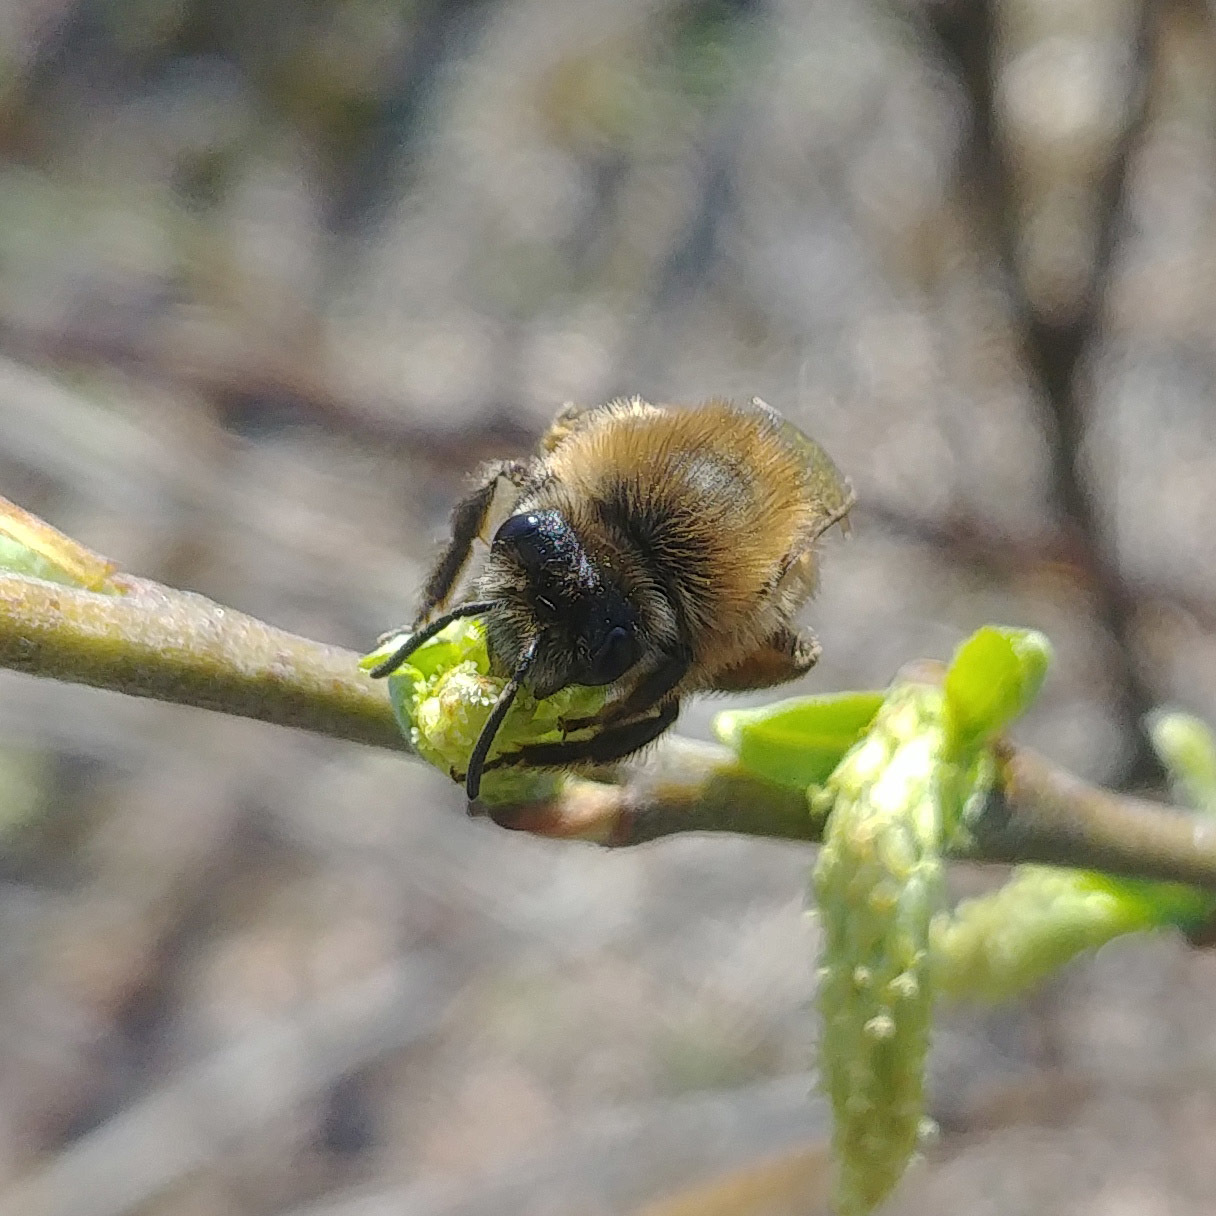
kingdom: Animalia
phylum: Arthropoda
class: Insecta
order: Hymenoptera
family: Colletidae
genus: Colletes
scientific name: Colletes cunicularius
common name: Early colletes
